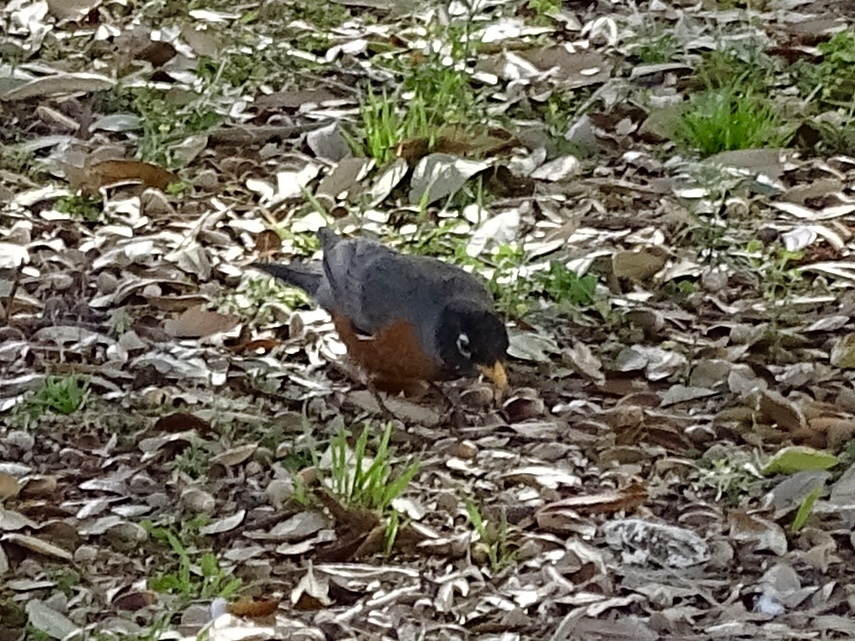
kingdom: Animalia
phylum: Chordata
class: Aves
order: Passeriformes
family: Turdidae
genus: Turdus
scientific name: Turdus migratorius
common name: American robin
